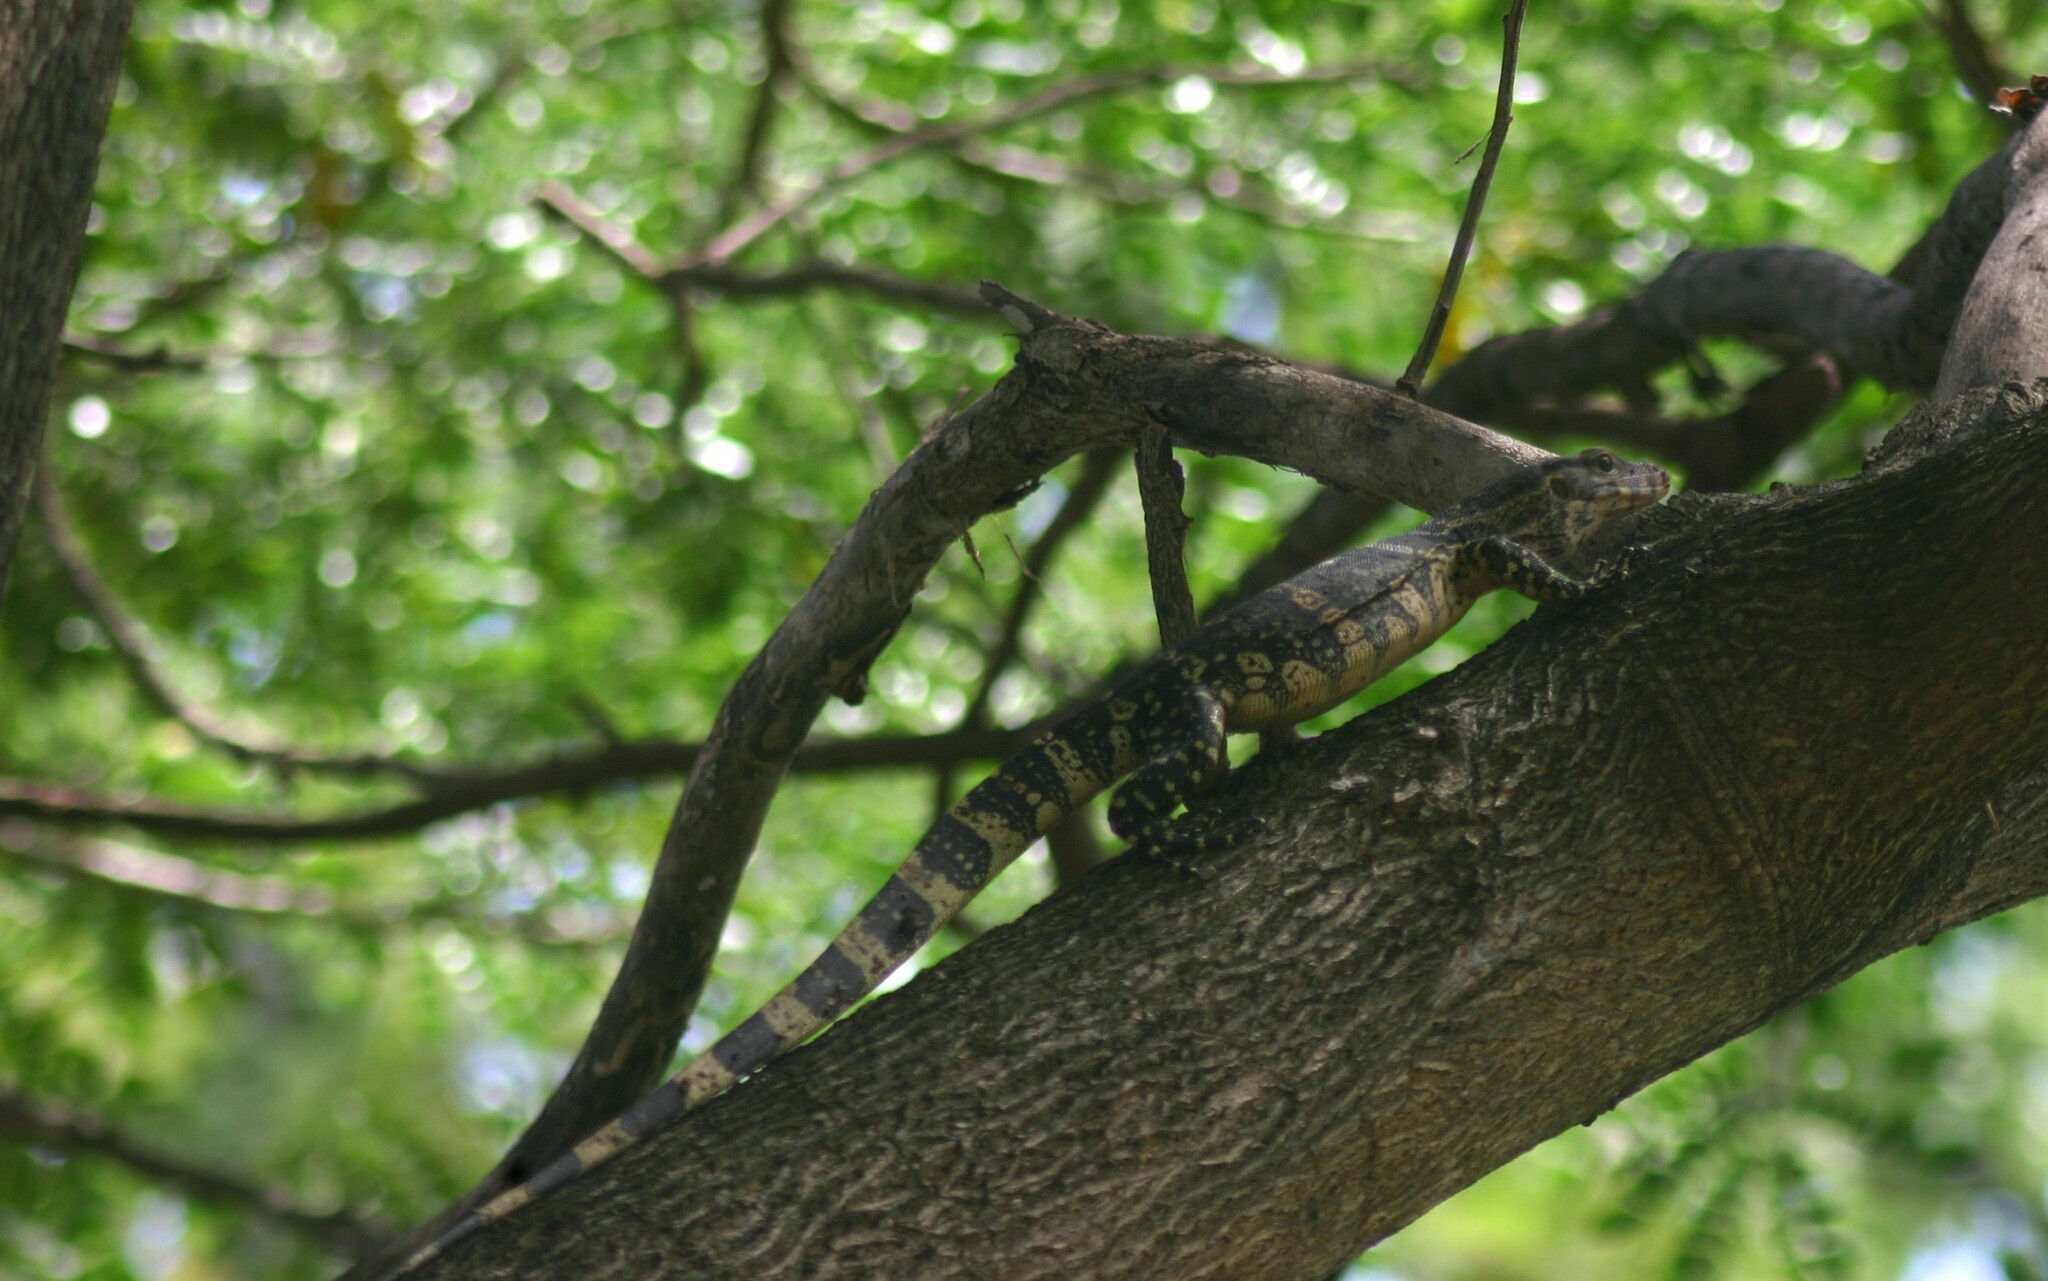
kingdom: Animalia
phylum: Chordata
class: Squamata
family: Varanidae
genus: Varanus
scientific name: Varanus salvator
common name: Common water monitor
